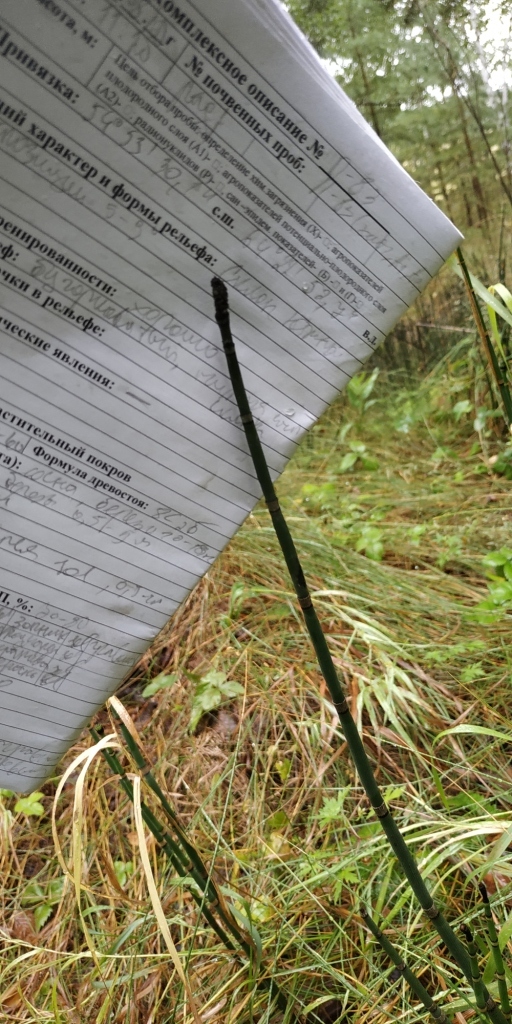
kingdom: Plantae
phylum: Tracheophyta
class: Polypodiopsida
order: Equisetales
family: Equisetaceae
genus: Equisetum
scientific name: Equisetum hyemale
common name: Rough horsetail
